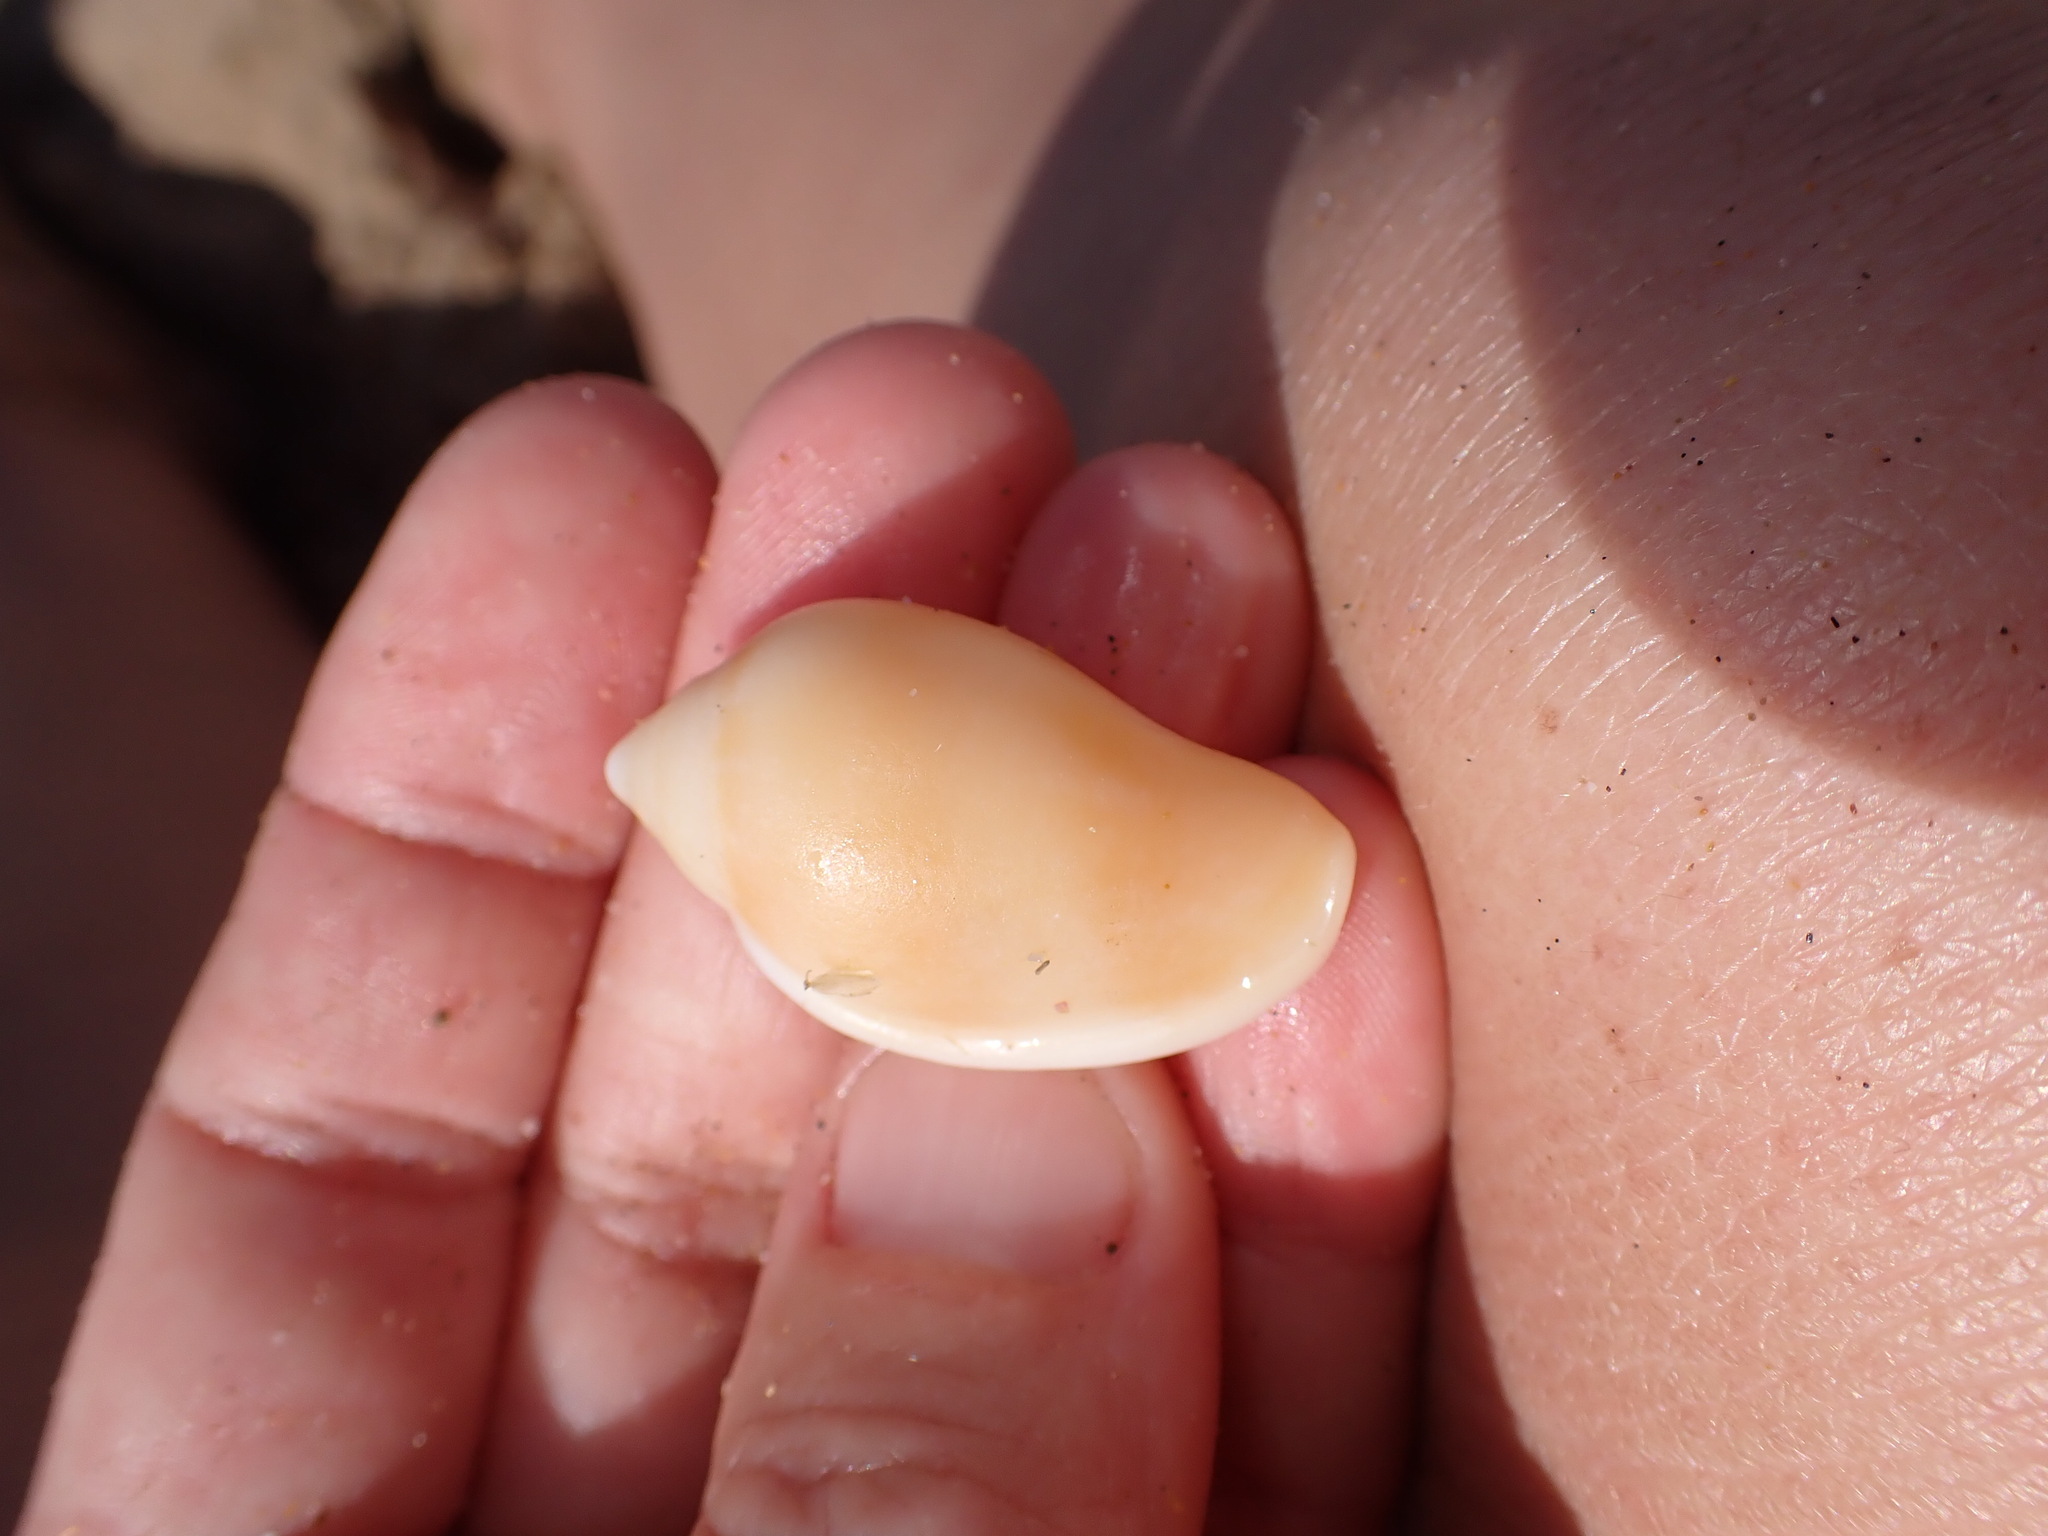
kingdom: Animalia
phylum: Mollusca
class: Gastropoda
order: Neogastropoda
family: Marginellidae
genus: Marginella
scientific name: Marginella glabella
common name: Shiny marginella
